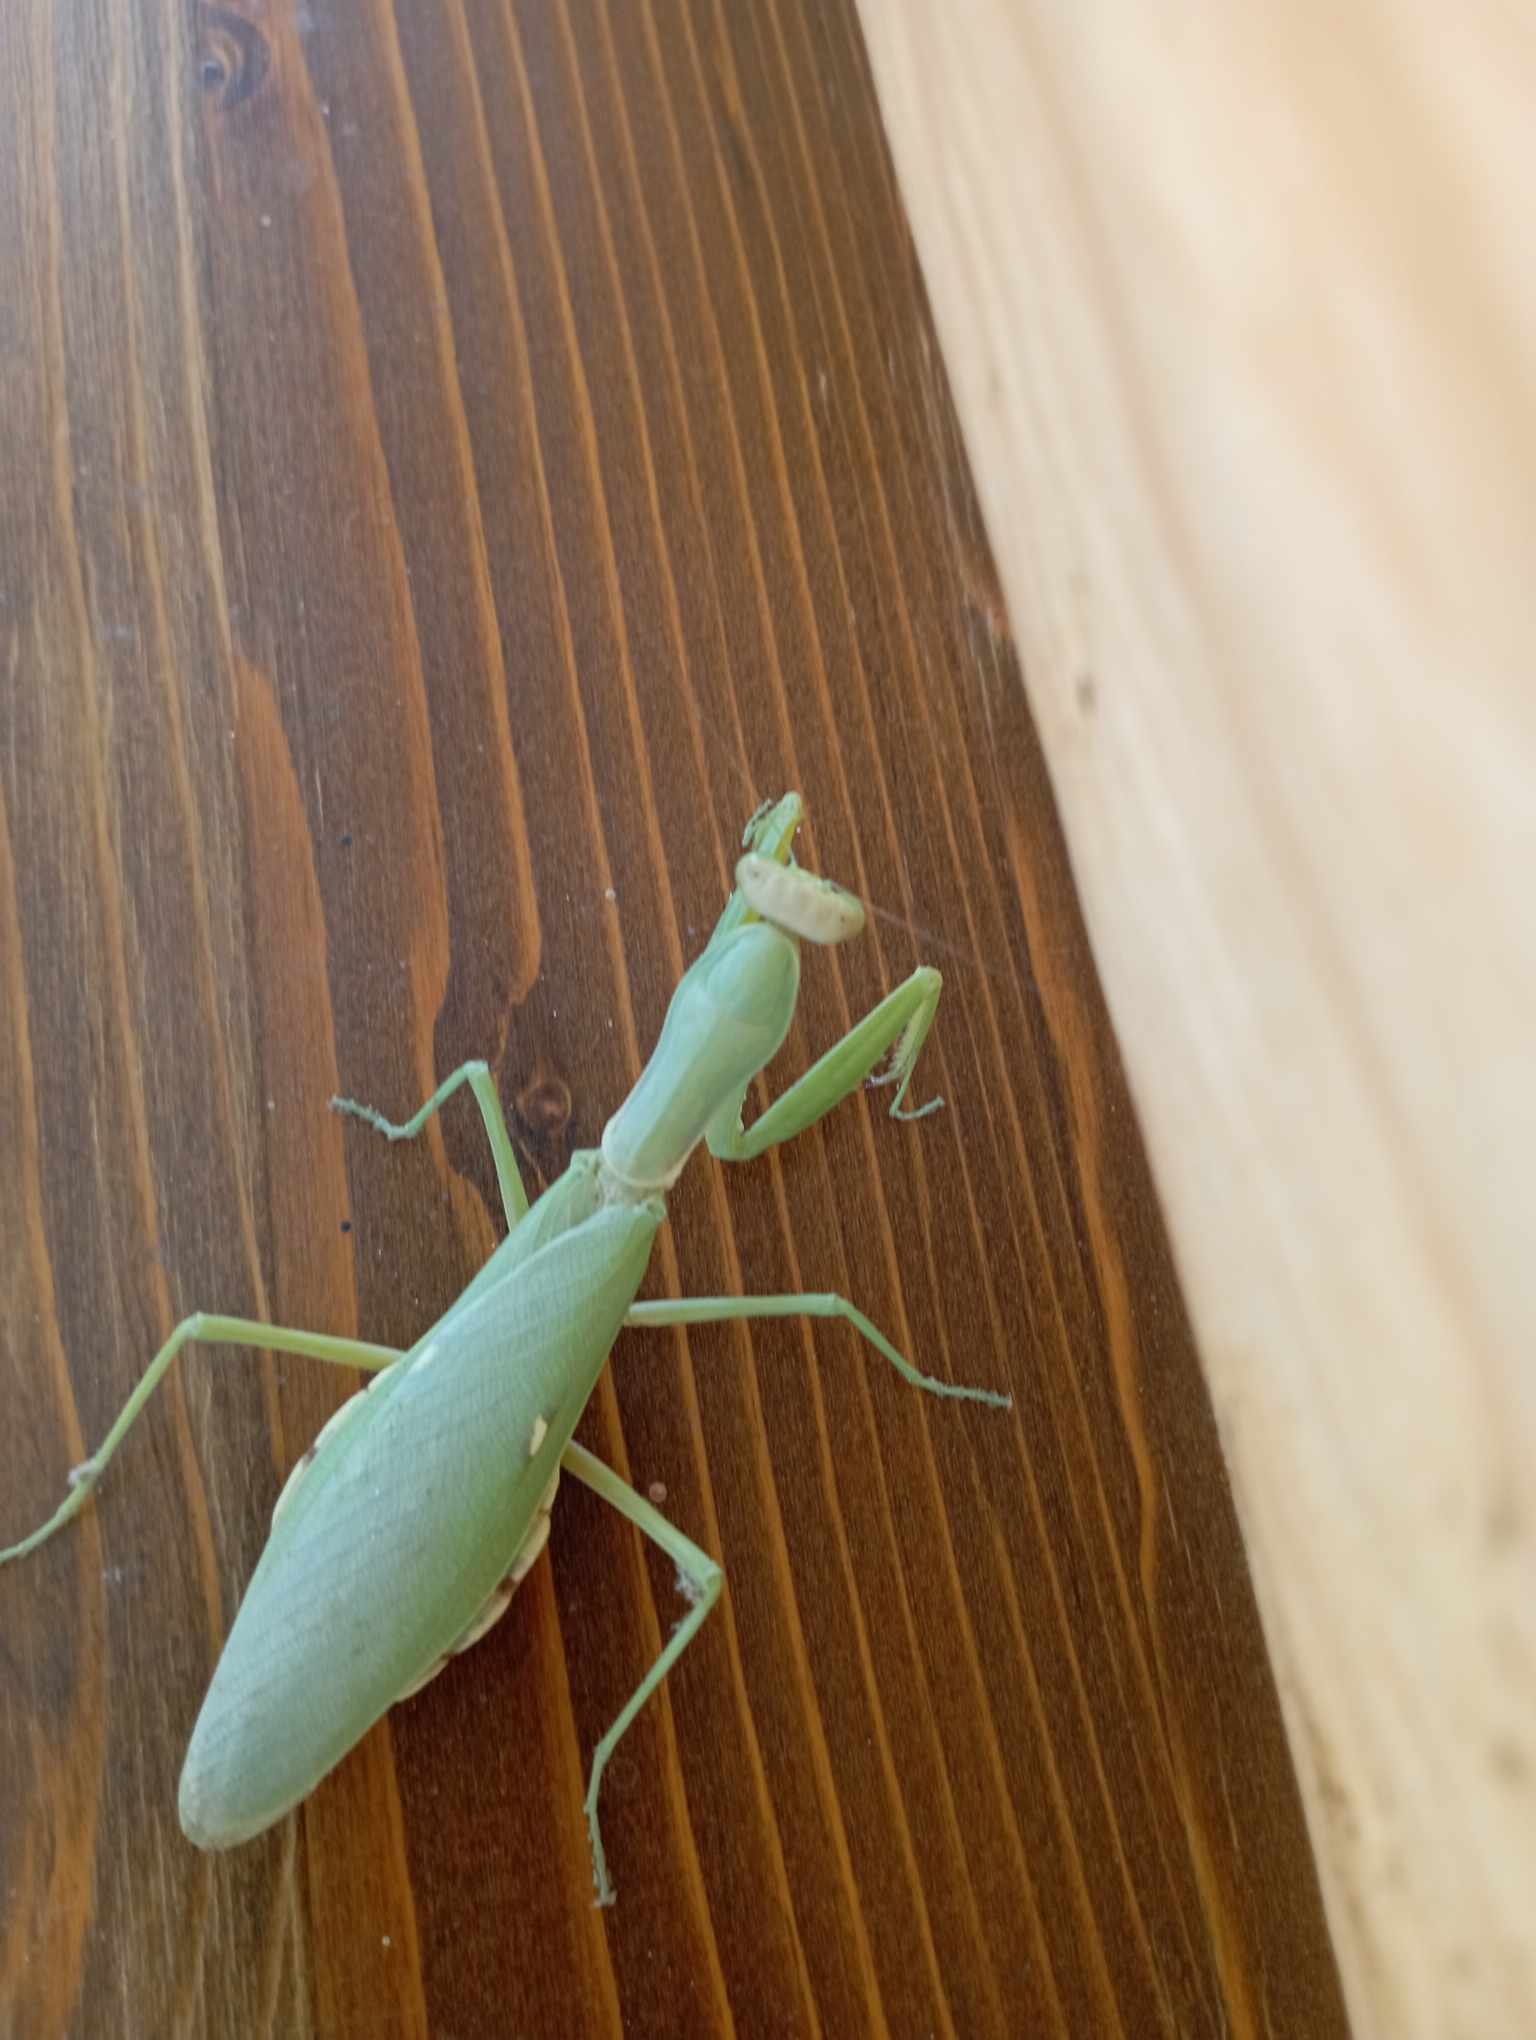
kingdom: Animalia
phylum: Arthropoda
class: Insecta
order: Mantodea
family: Mantidae
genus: Hierodula
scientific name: Hierodula transcaucasica
